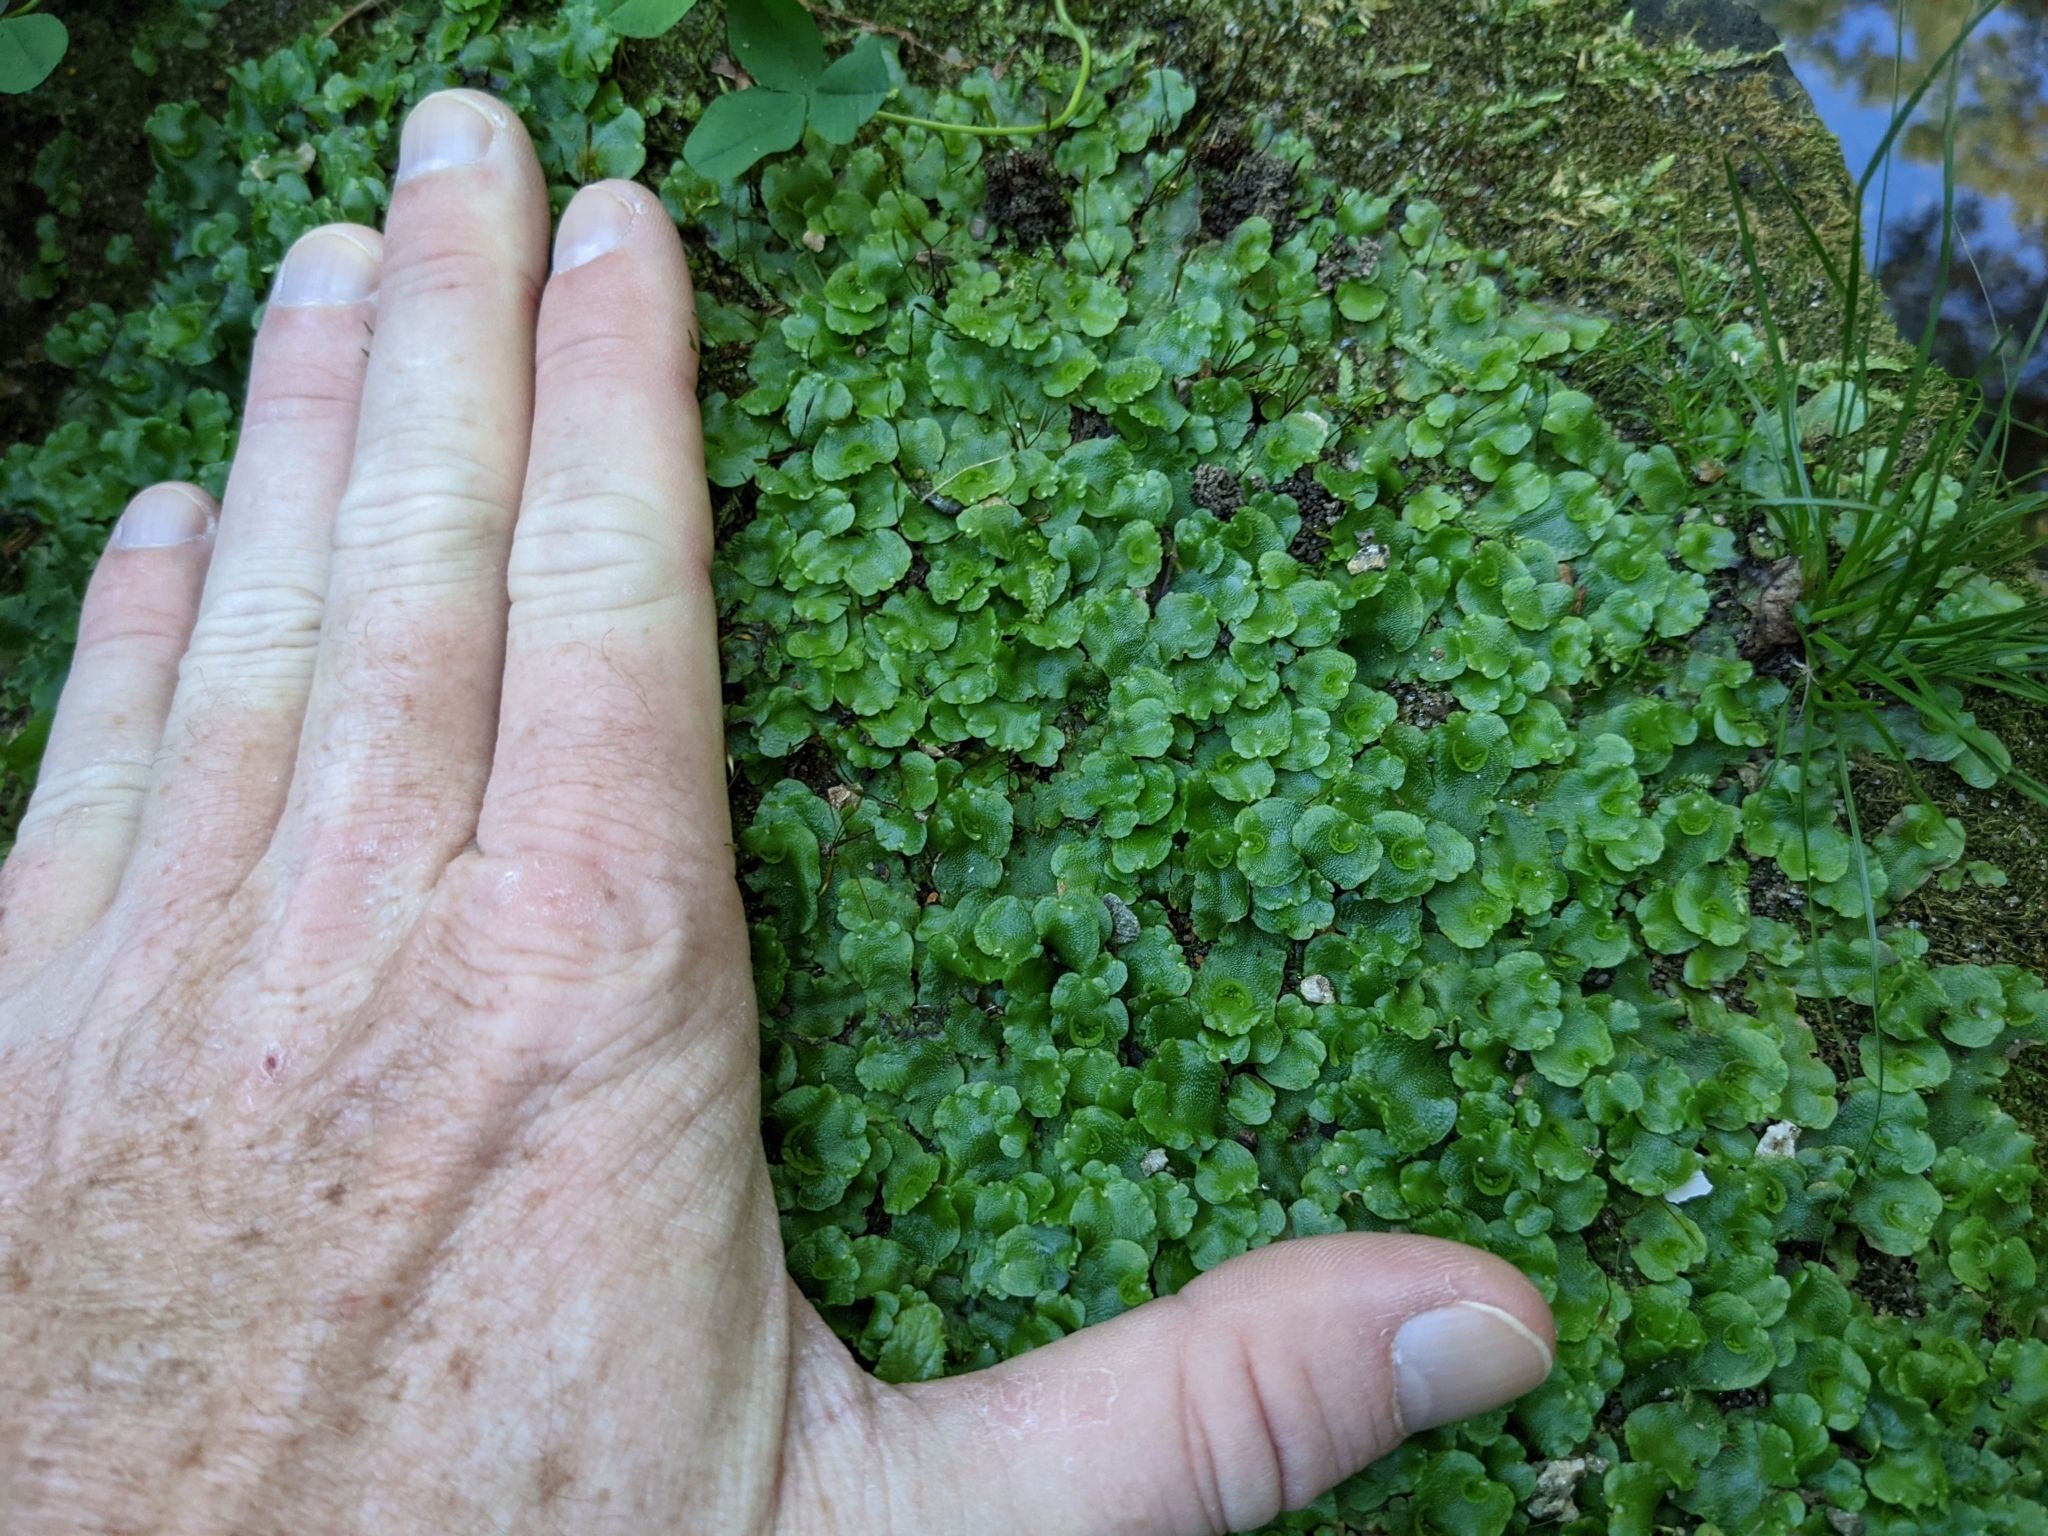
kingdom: Plantae
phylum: Marchantiophyta
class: Marchantiopsida
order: Lunulariales
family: Lunulariaceae
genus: Lunularia
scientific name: Lunularia cruciata
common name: Crescent-cup liverwort
